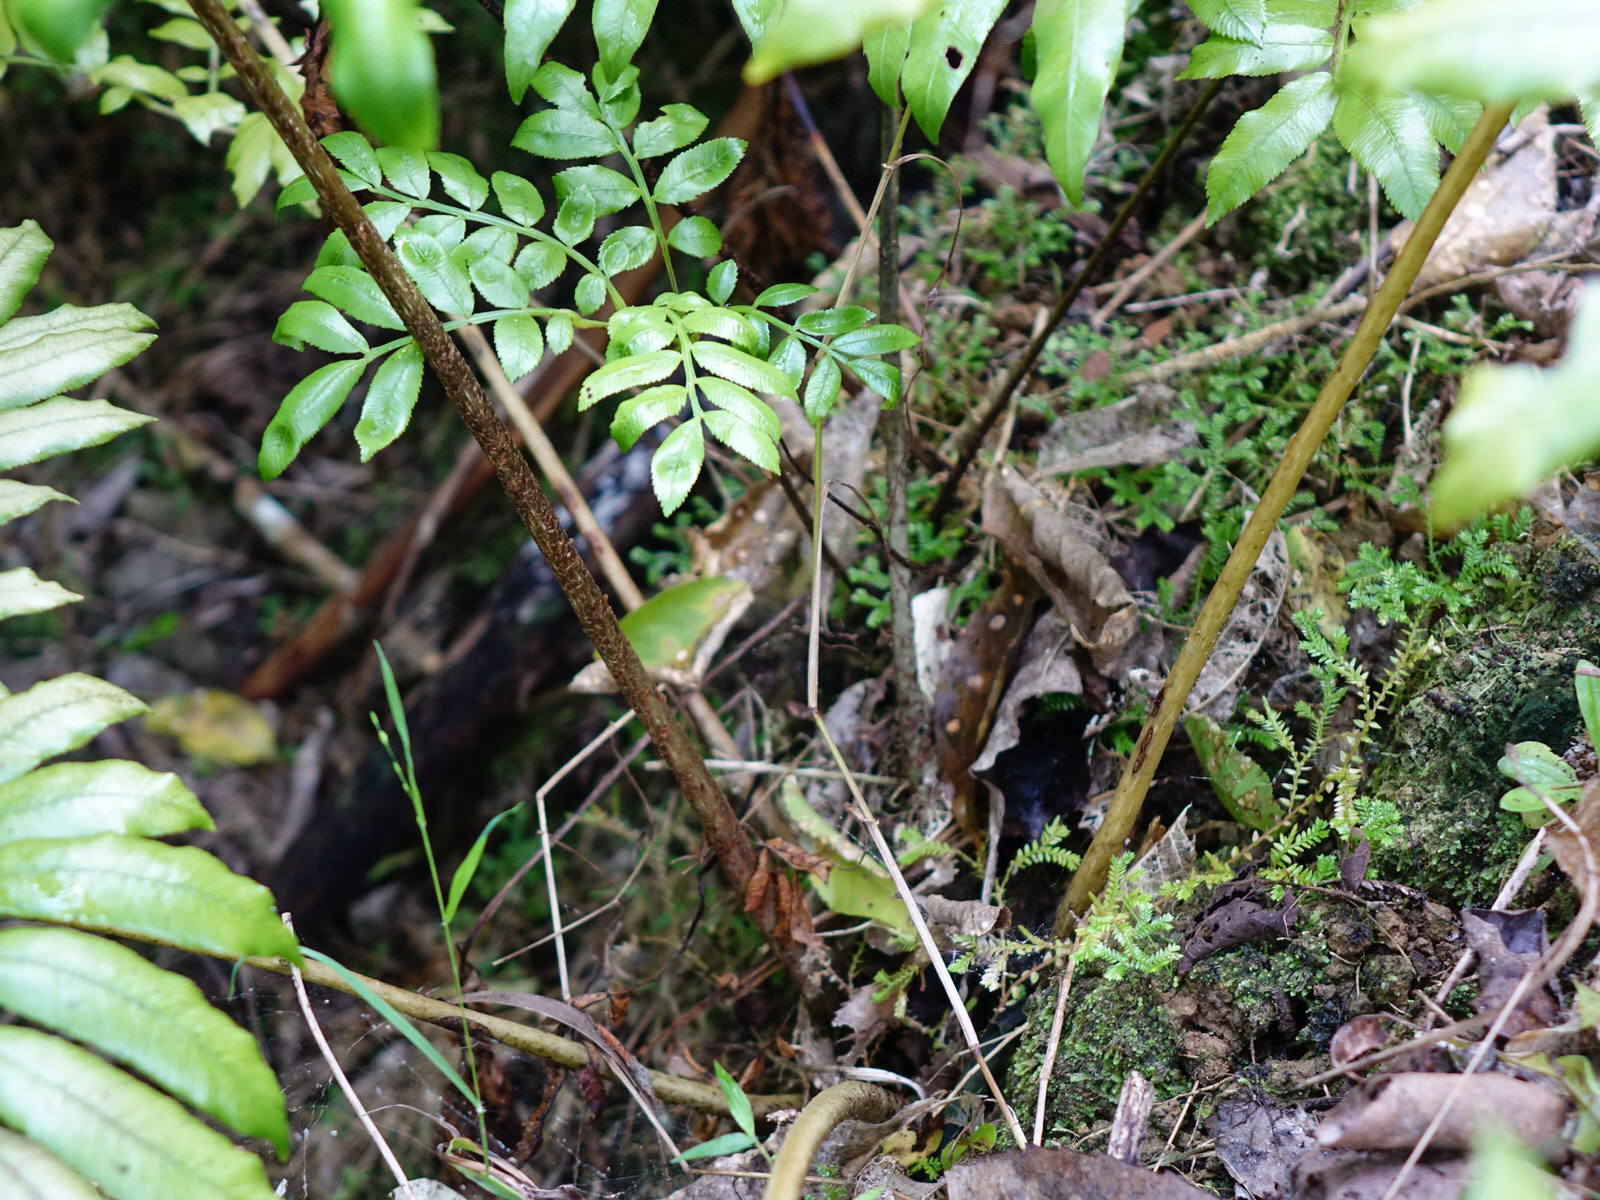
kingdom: Plantae
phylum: Tracheophyta
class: Polypodiopsida
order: Marattiales
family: Marattiaceae
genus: Ptisana
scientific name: Ptisana salicina
